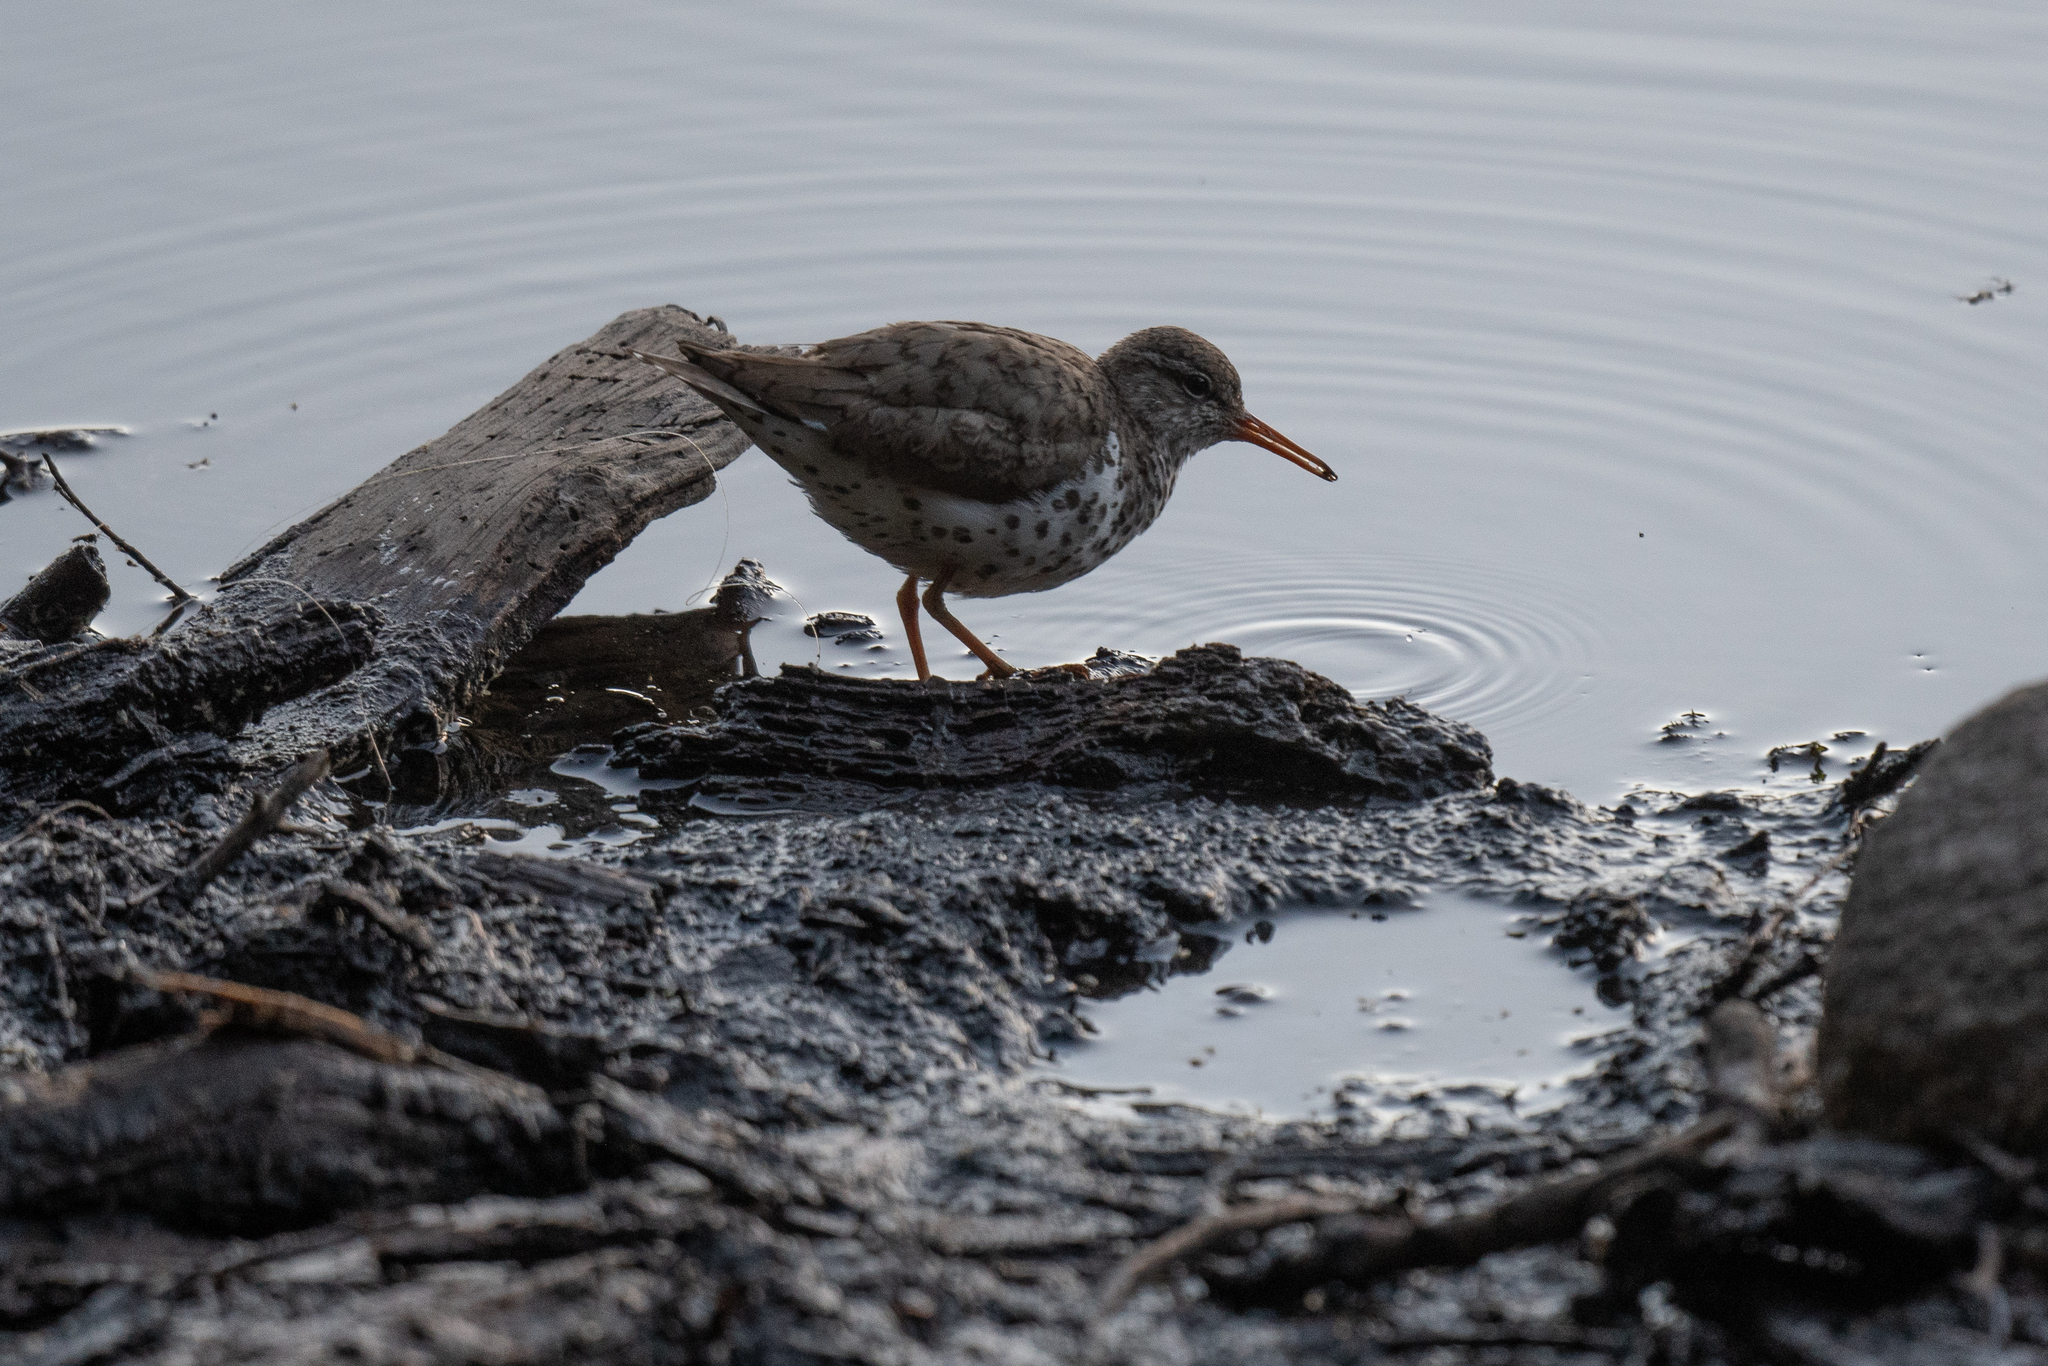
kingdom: Animalia
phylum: Chordata
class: Aves
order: Charadriiformes
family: Scolopacidae
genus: Actitis
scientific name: Actitis macularius
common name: Spotted sandpiper
